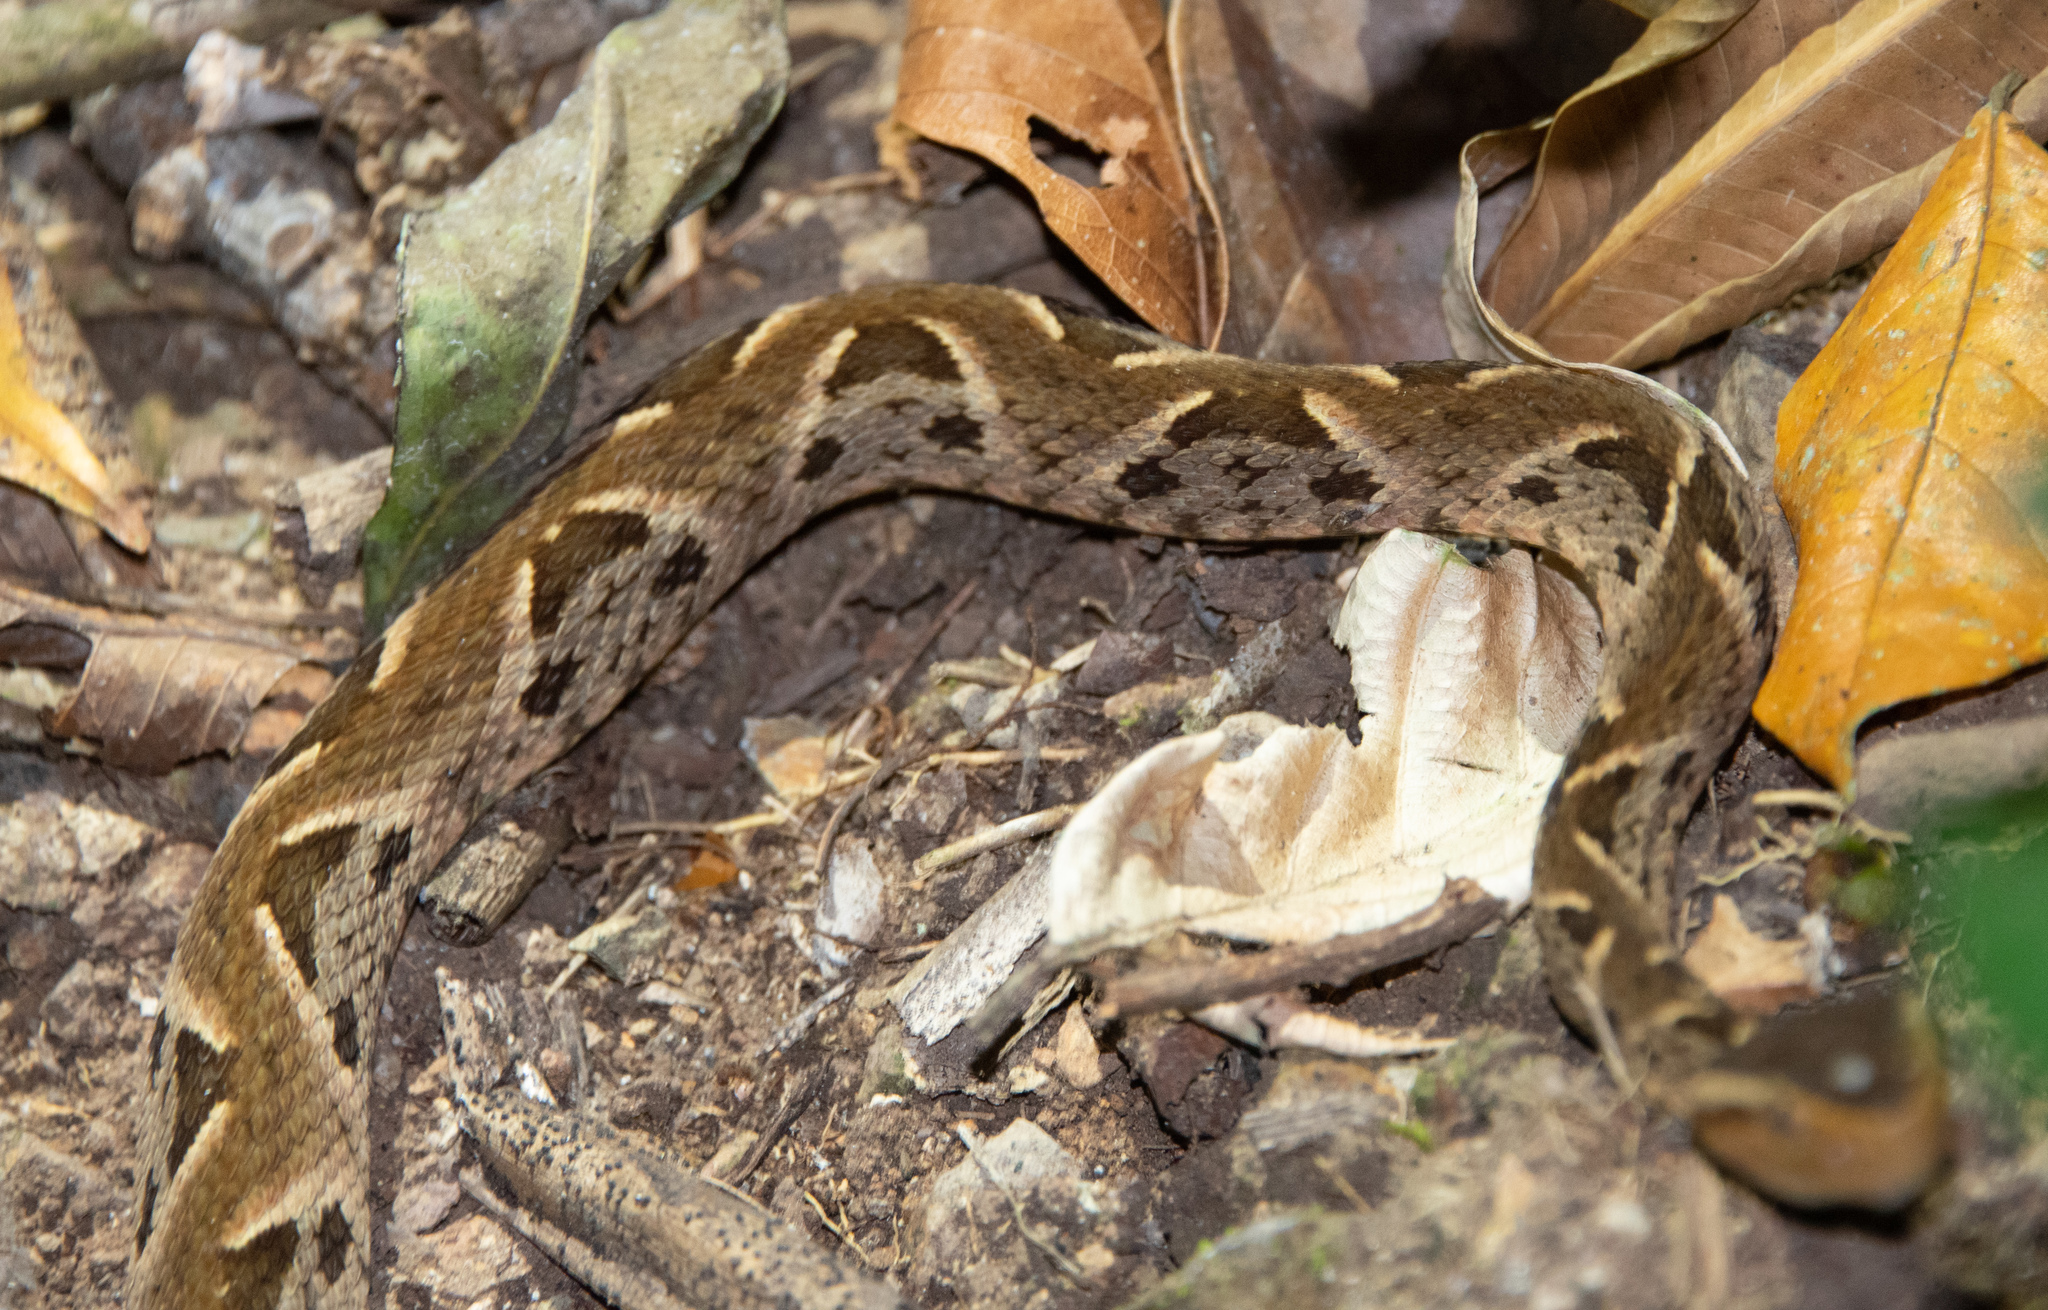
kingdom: Animalia
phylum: Chordata
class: Squamata
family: Viperidae
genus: Bothrops
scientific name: Bothrops asper
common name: Terciopelo
